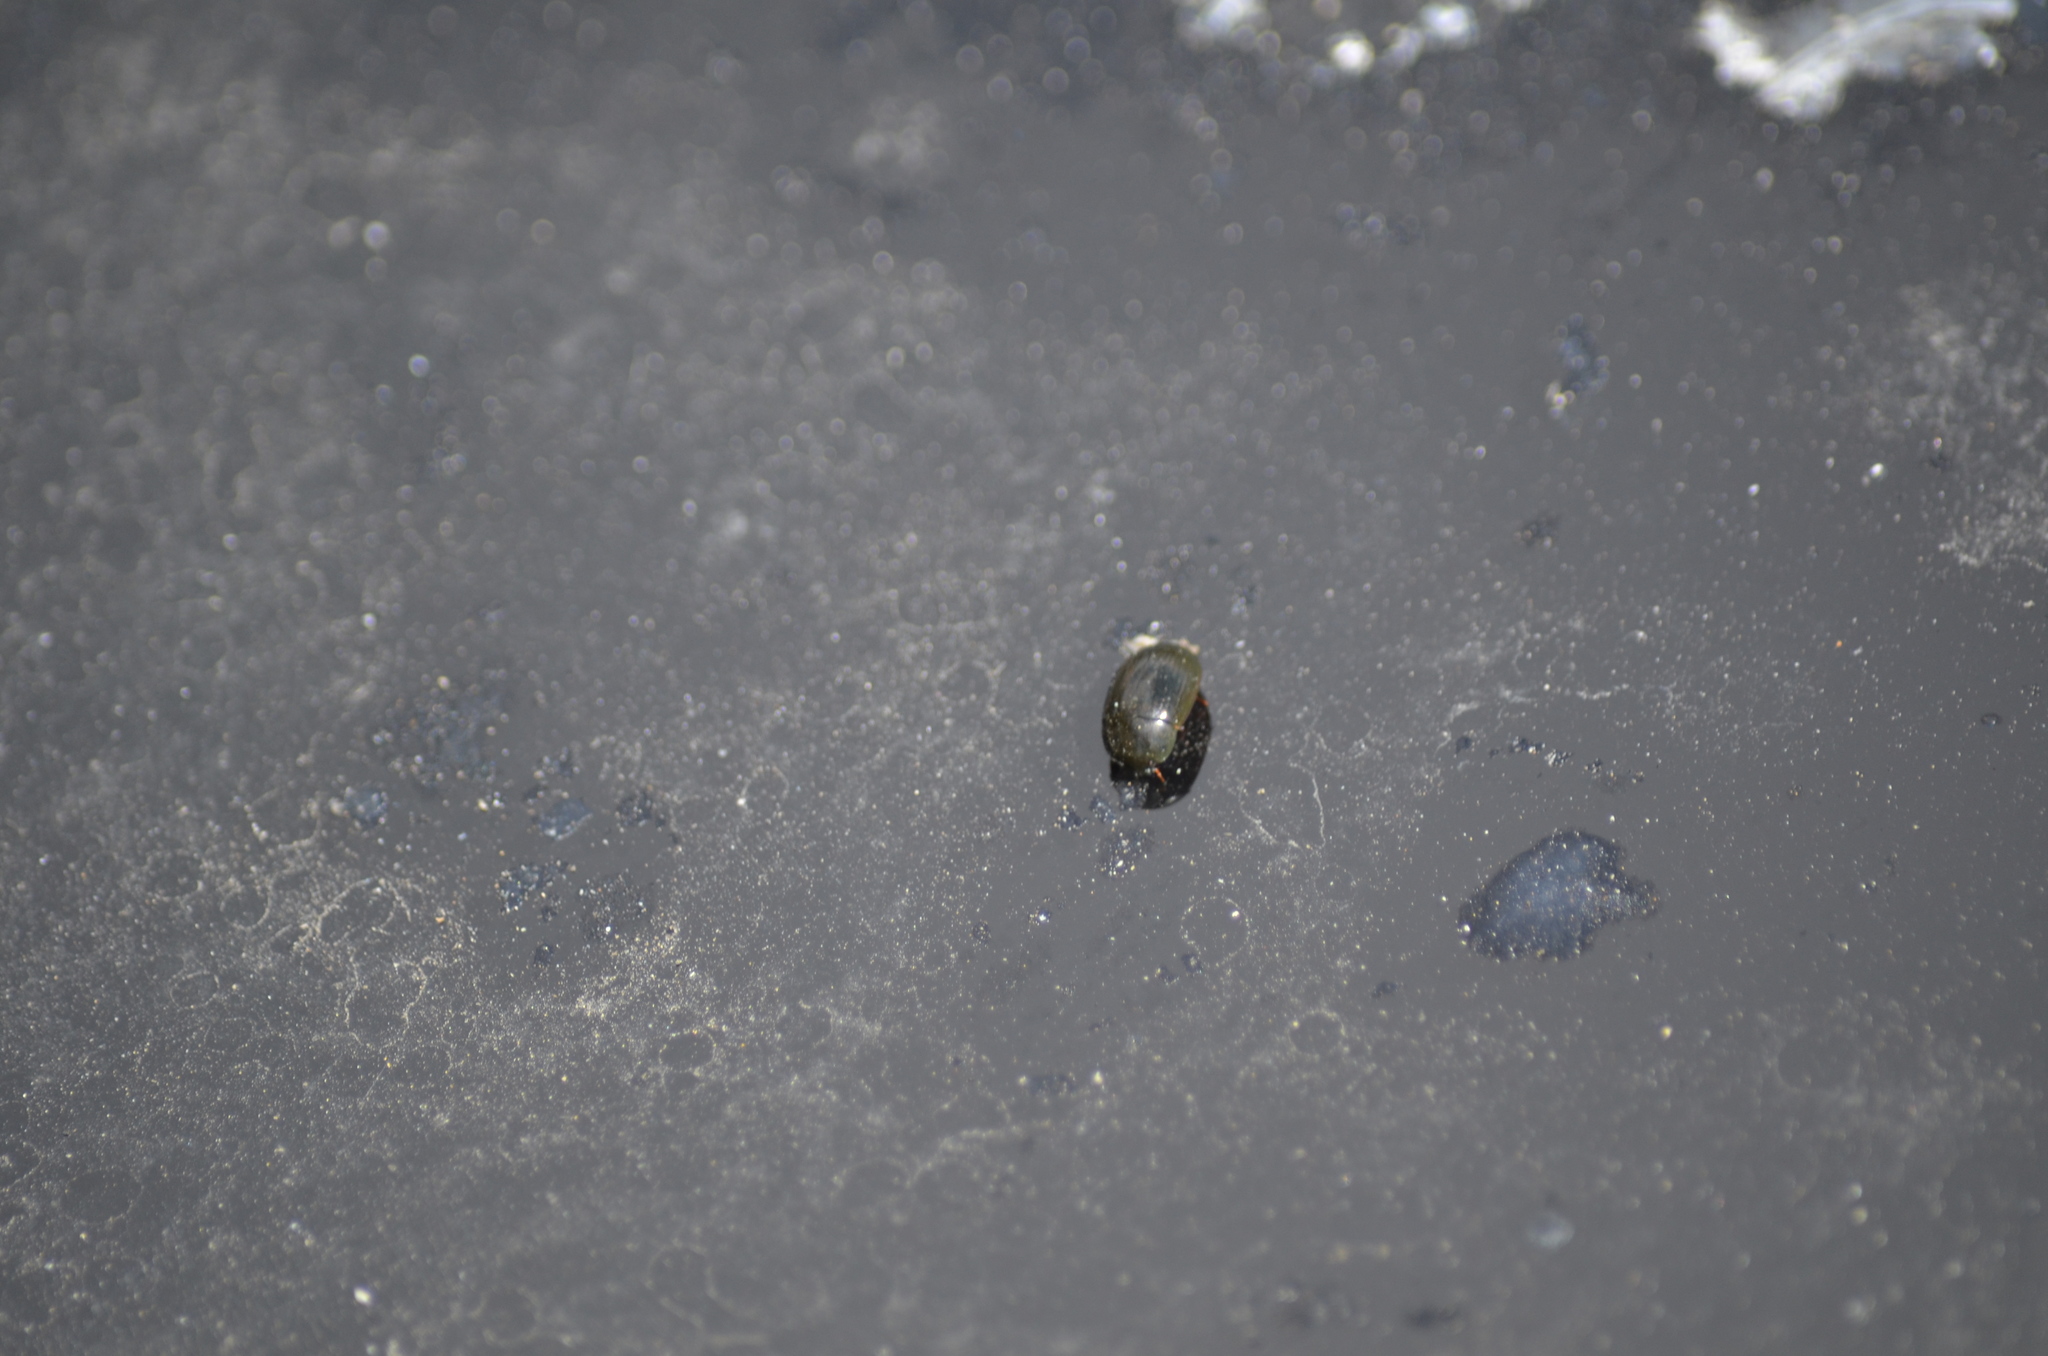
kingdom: Animalia
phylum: Arthropoda
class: Insecta
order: Coleoptera
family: Hydrophilidae
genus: Hydrobius
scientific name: Hydrobius fuscipes
